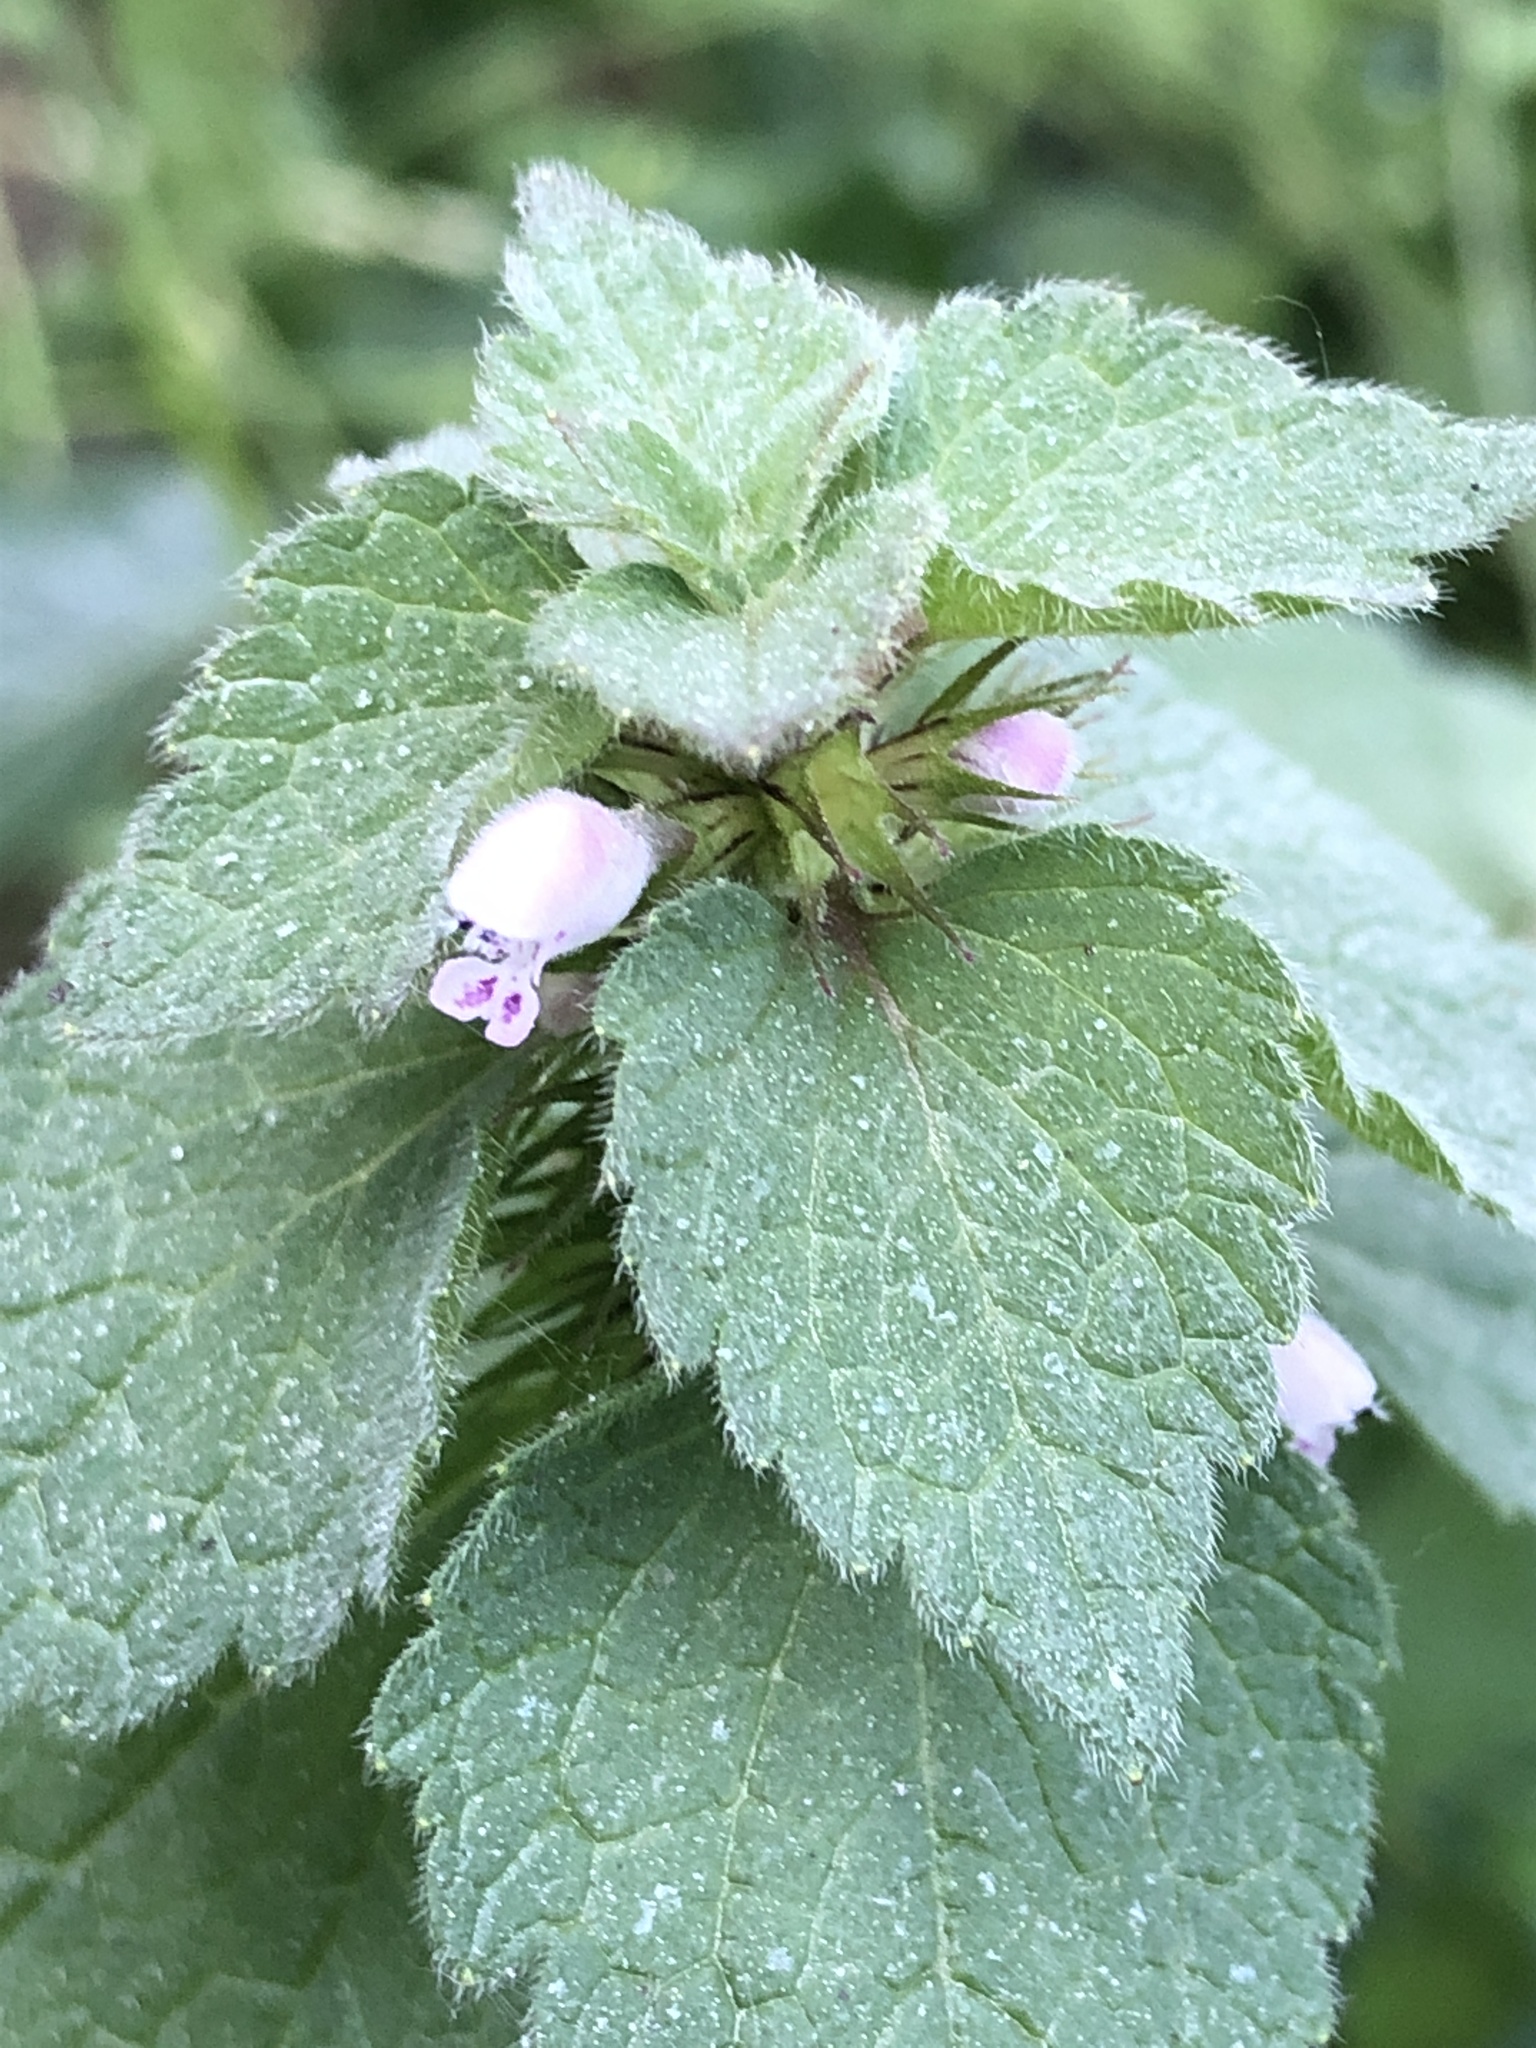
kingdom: Plantae
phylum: Tracheophyta
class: Magnoliopsida
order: Lamiales
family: Lamiaceae
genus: Lamium
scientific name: Lamium purpureum
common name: Red dead-nettle
